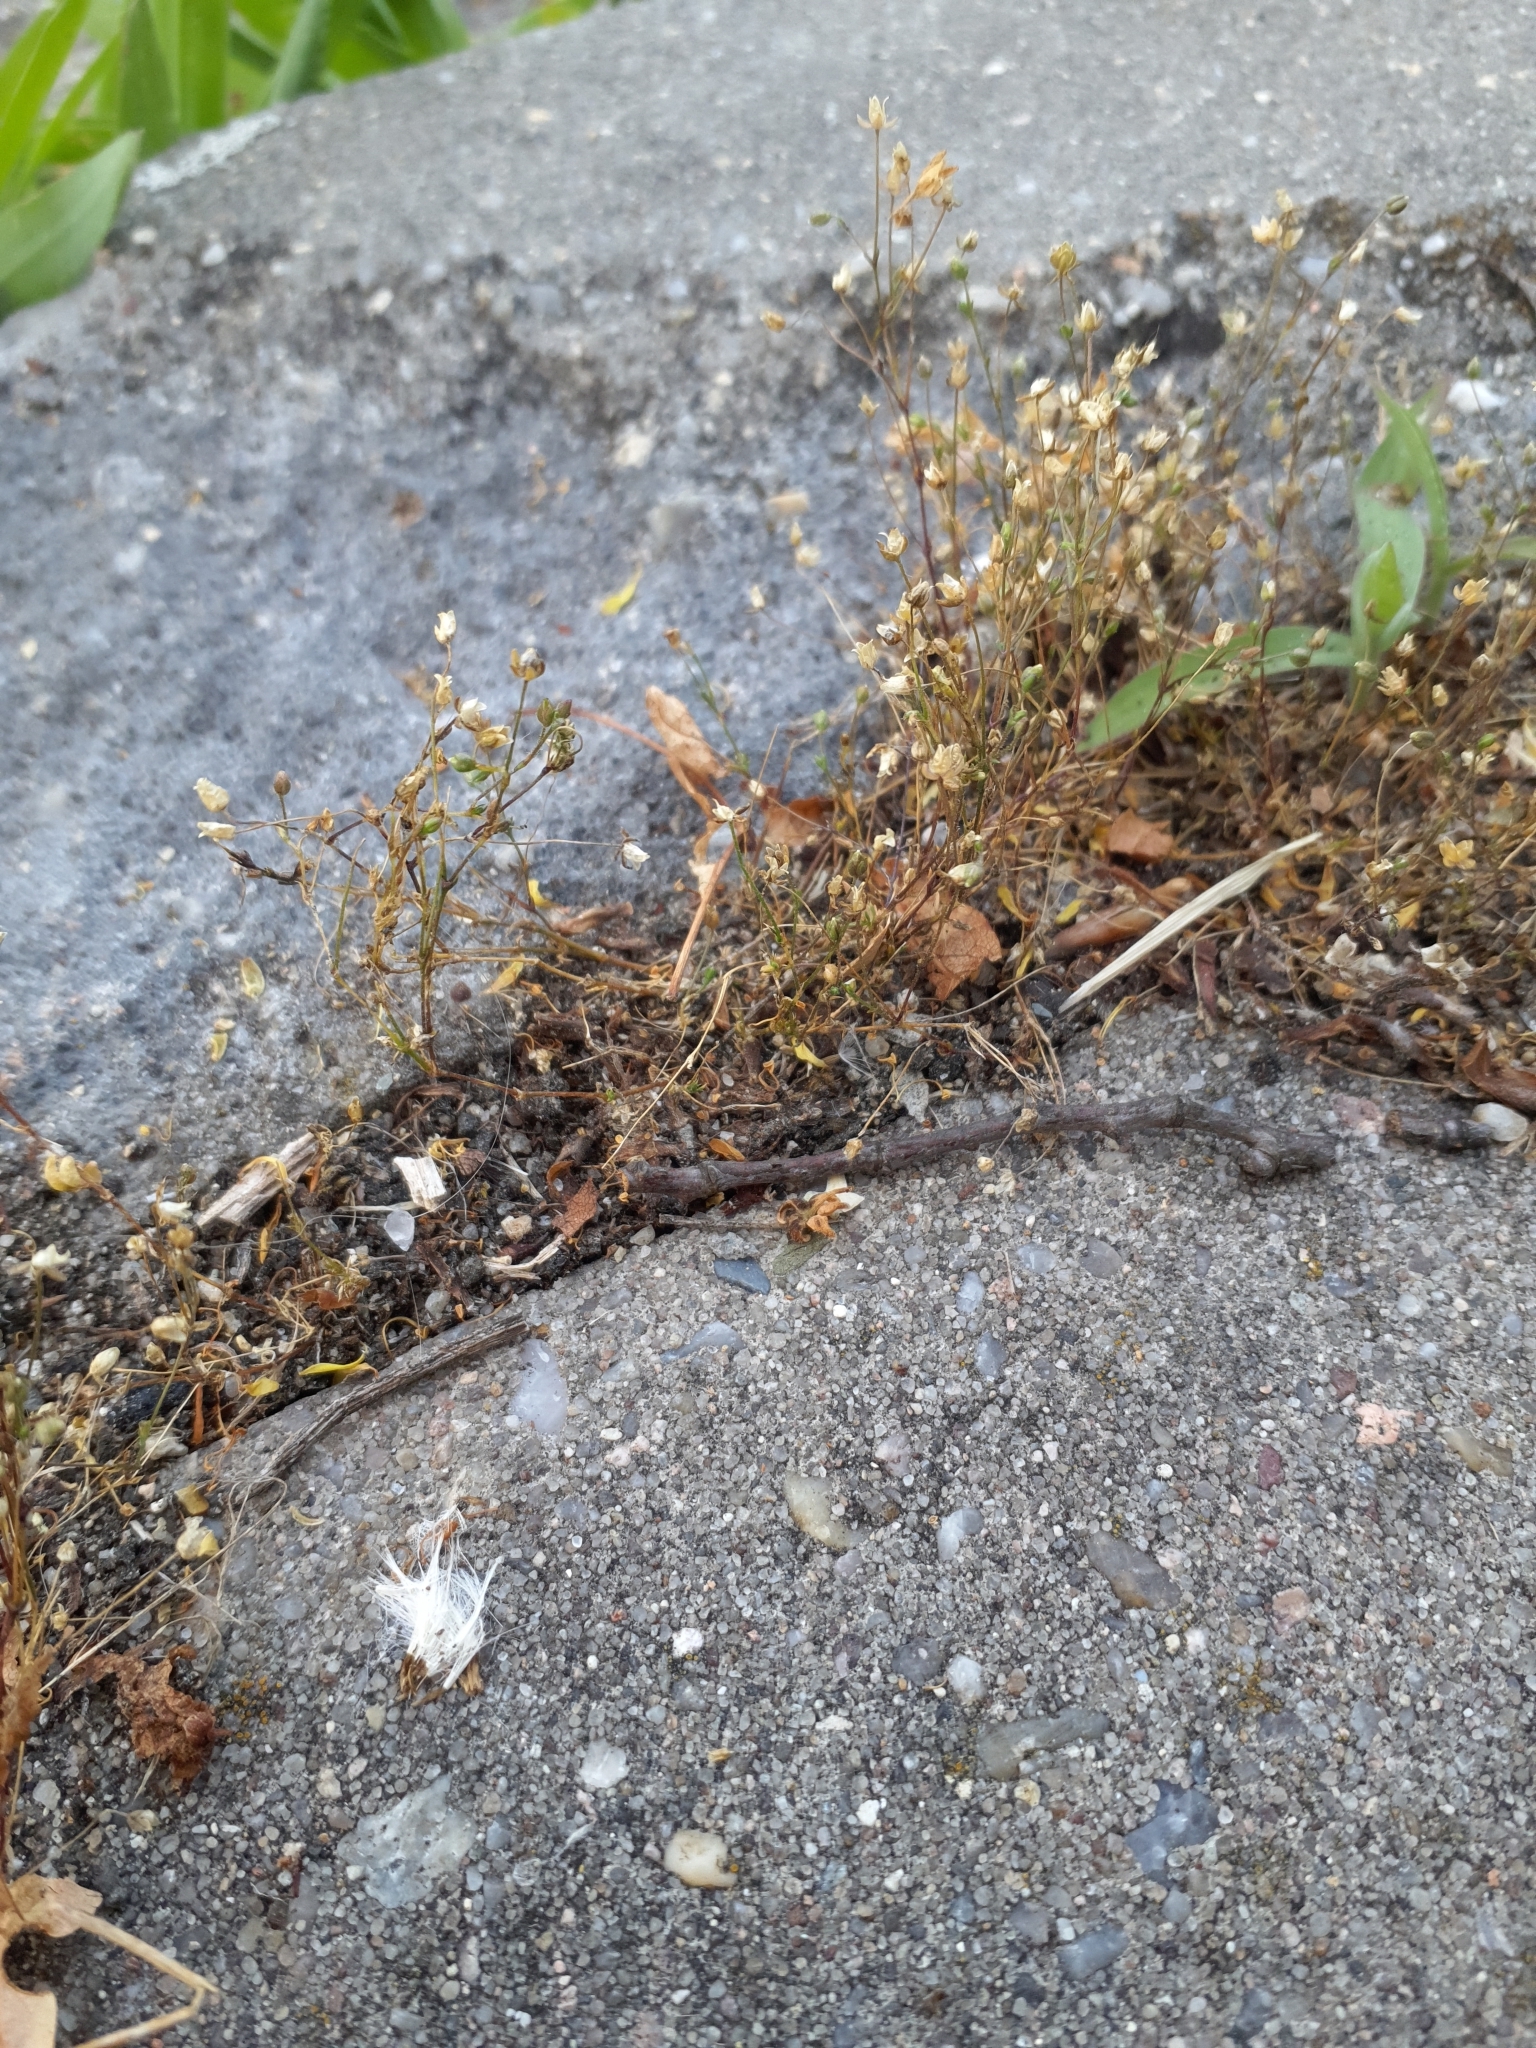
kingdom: Plantae
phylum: Tracheophyta
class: Magnoliopsida
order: Caryophyllales
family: Caryophyllaceae
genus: Sagina
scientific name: Sagina apetala
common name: Annual pearlwort
